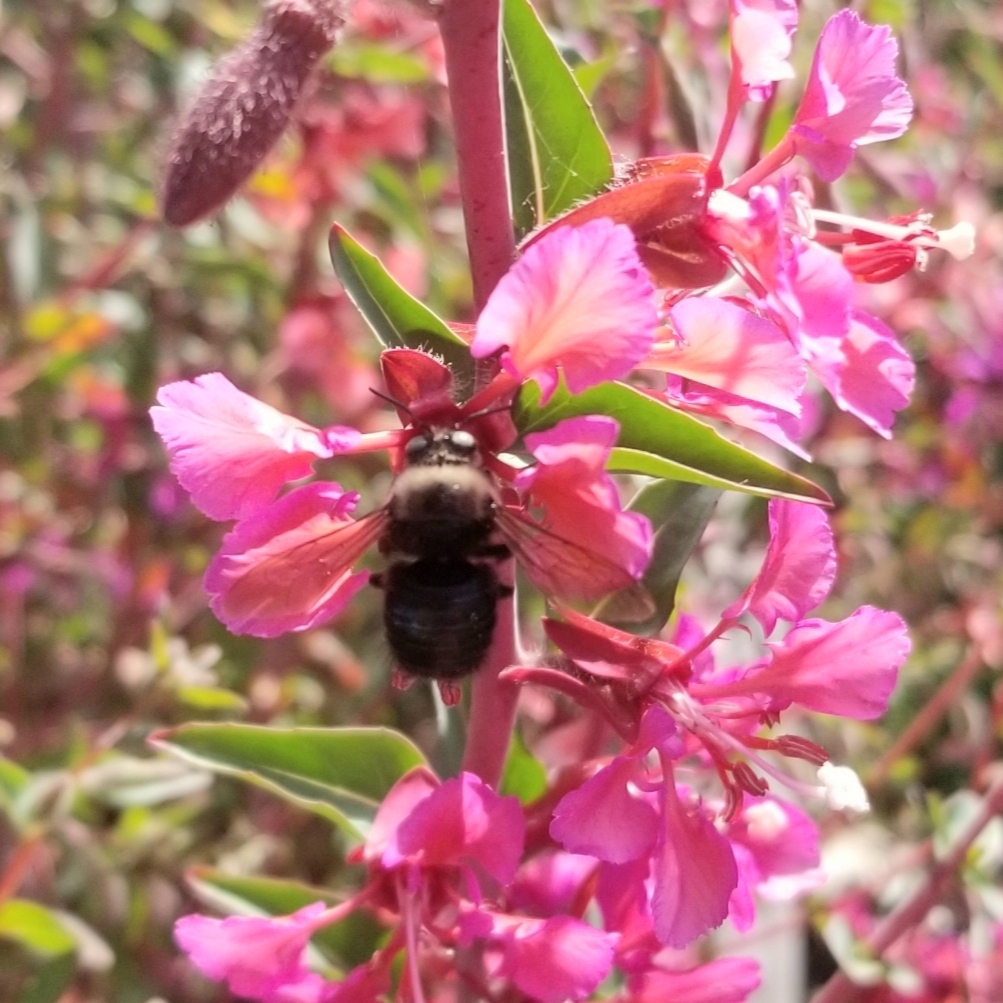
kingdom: Animalia
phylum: Arthropoda
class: Insecta
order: Hymenoptera
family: Apidae
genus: Xylocopa
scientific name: Xylocopa tabaniformis
